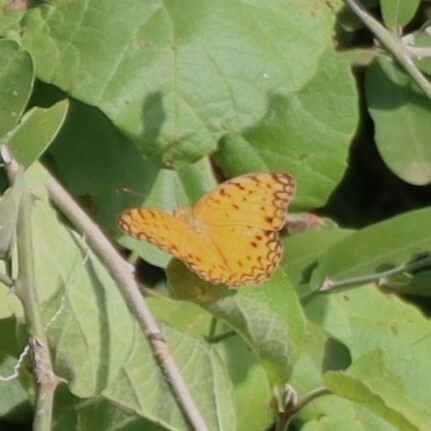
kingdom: Animalia
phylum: Arthropoda
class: Insecta
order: Lepidoptera
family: Nymphalidae
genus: Phalanta
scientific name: Phalanta phalantha
